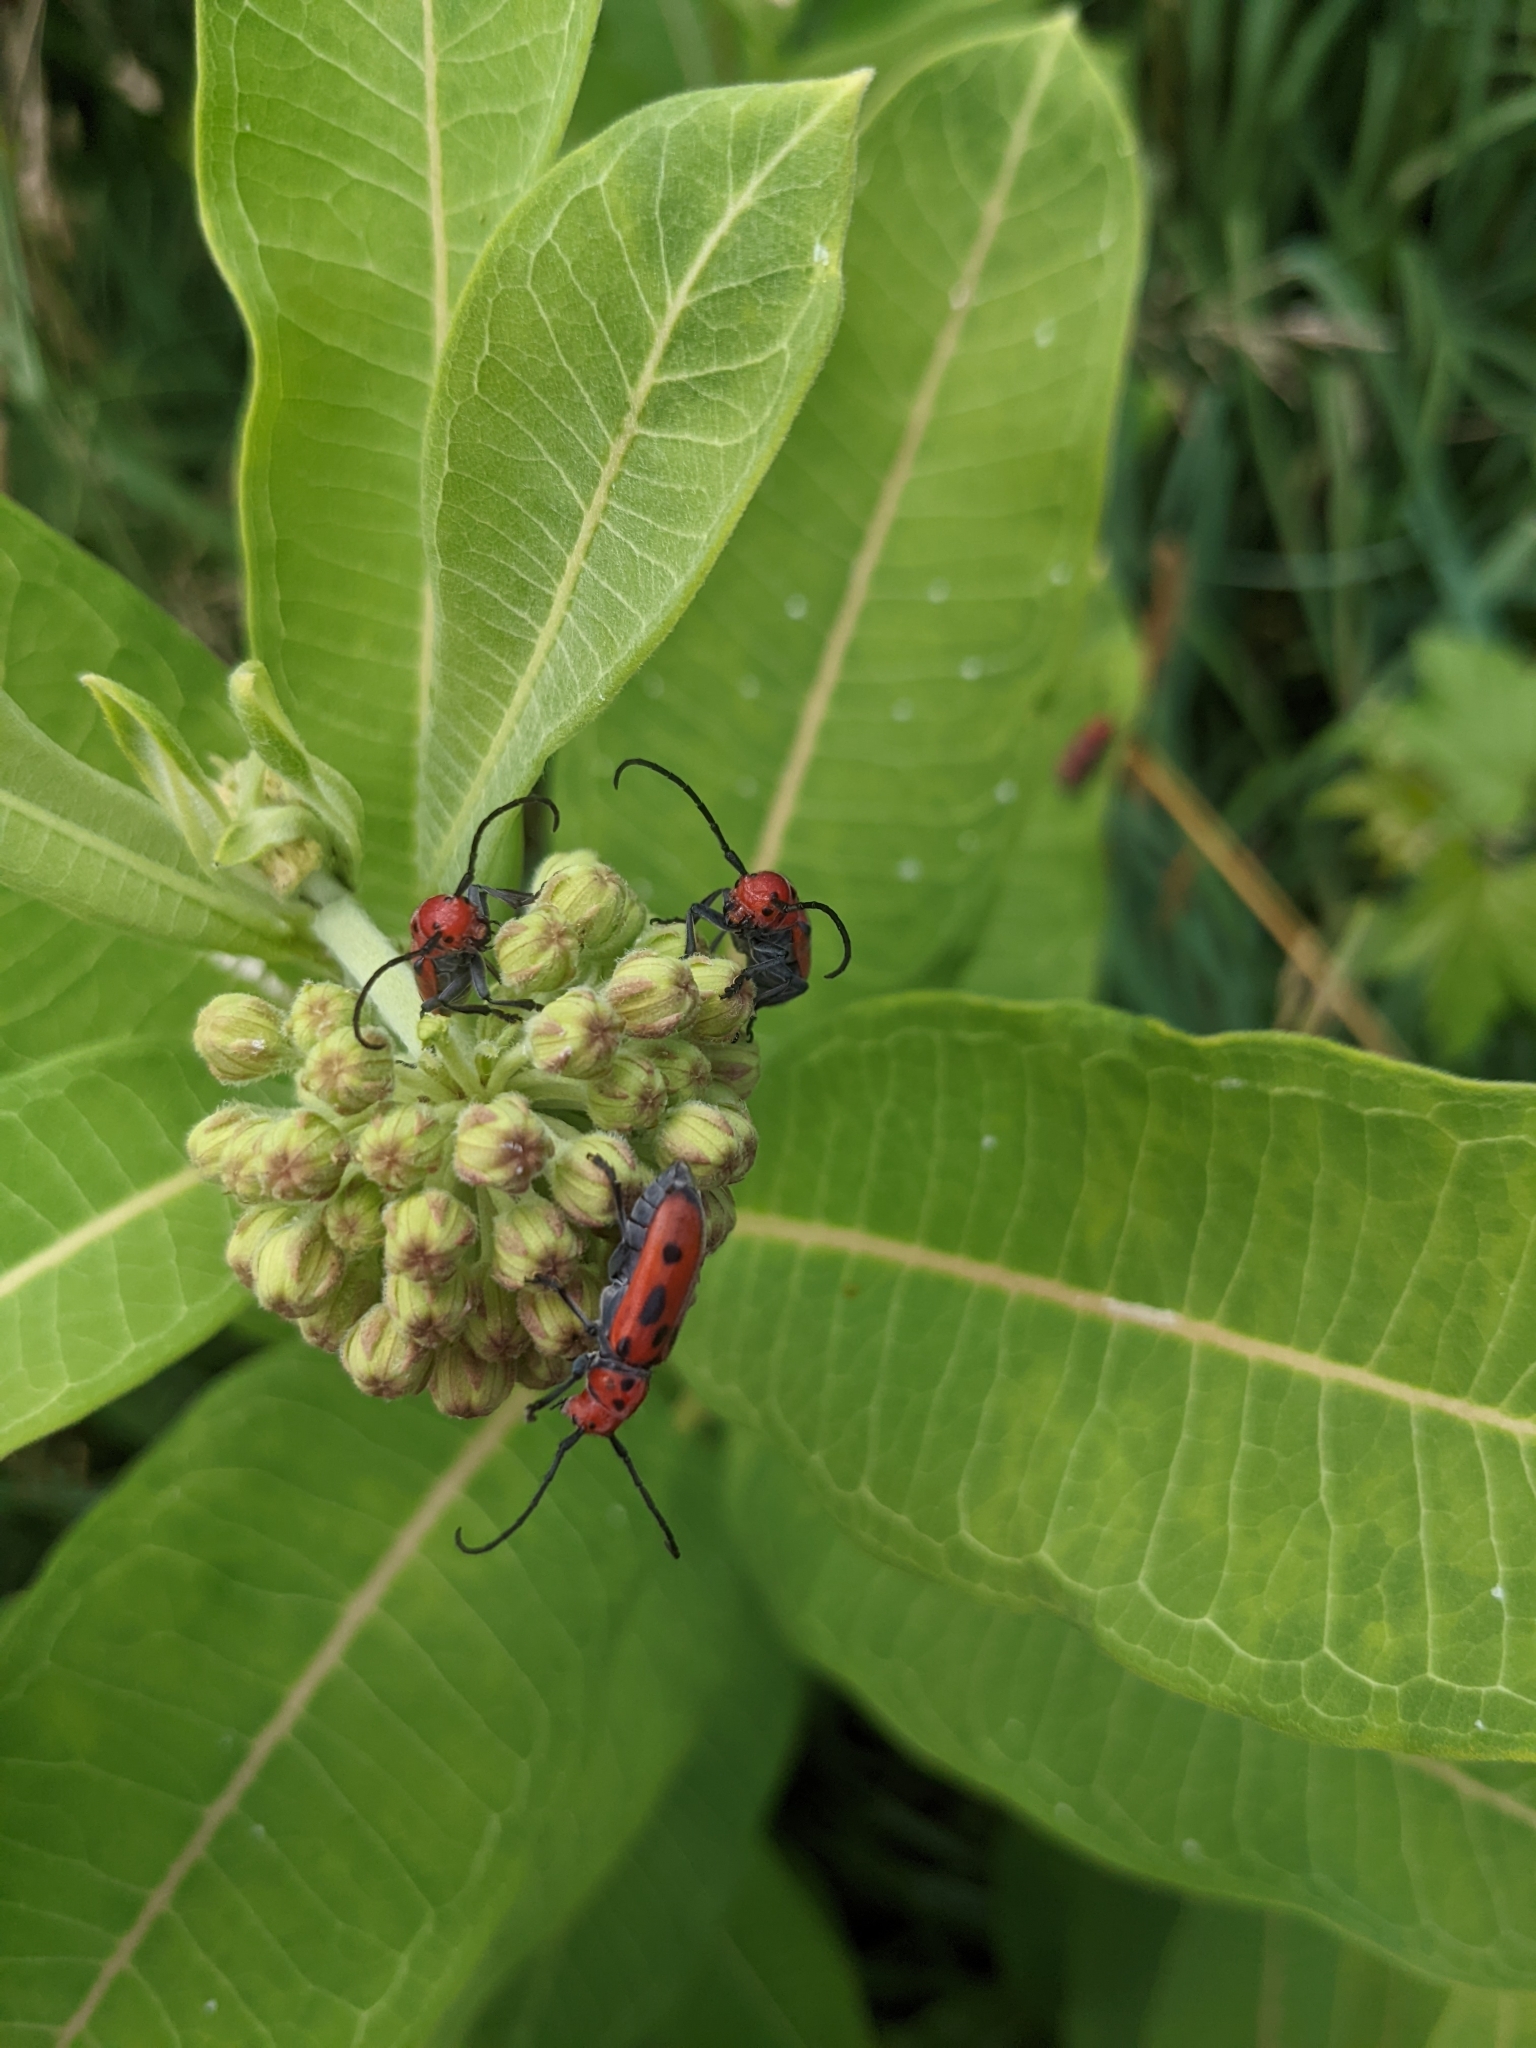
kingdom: Animalia
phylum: Arthropoda
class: Insecta
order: Coleoptera
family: Cerambycidae
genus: Tetraopes
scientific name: Tetraopes tetrophthalmus
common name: Red milkweed beetle
